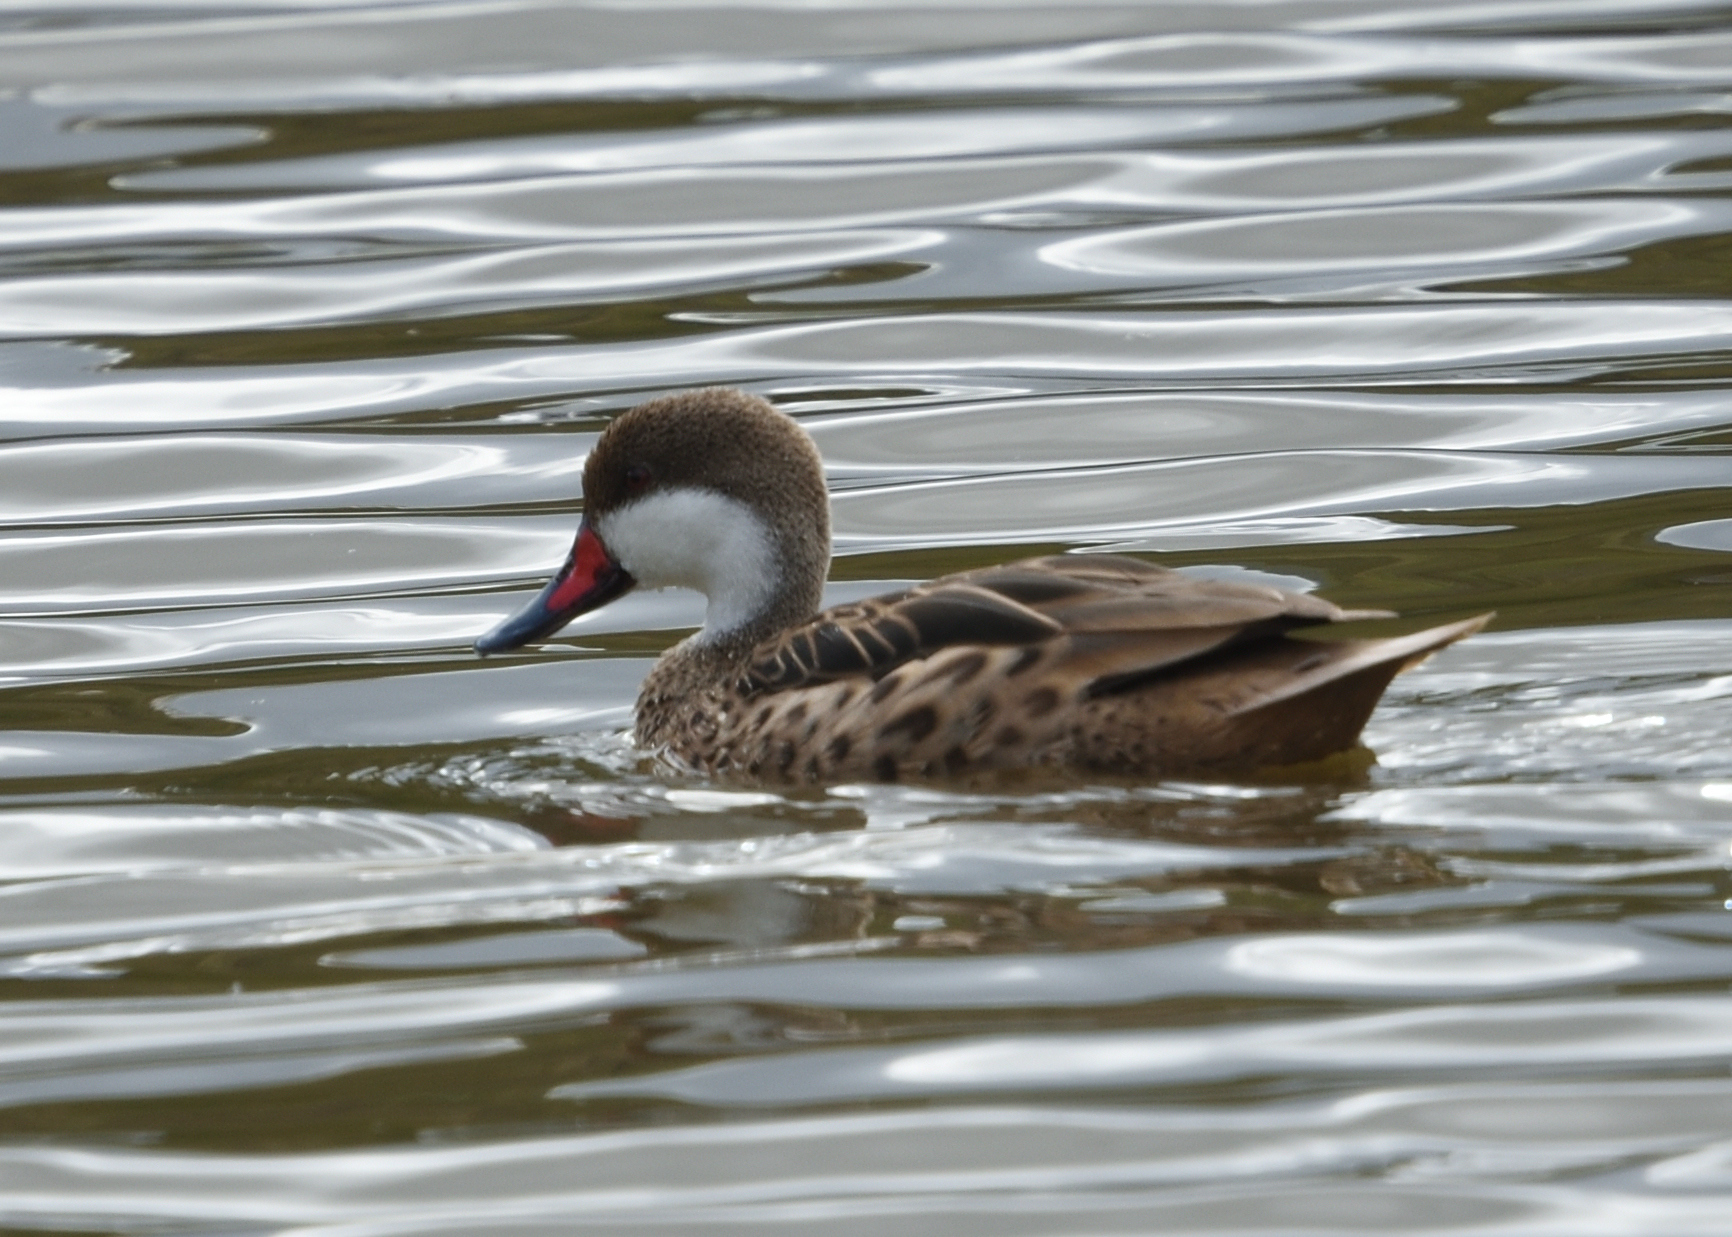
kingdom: Animalia
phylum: Chordata
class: Aves
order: Anseriformes
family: Anatidae
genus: Anas
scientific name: Anas bahamensis
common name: White-cheeked pintail
